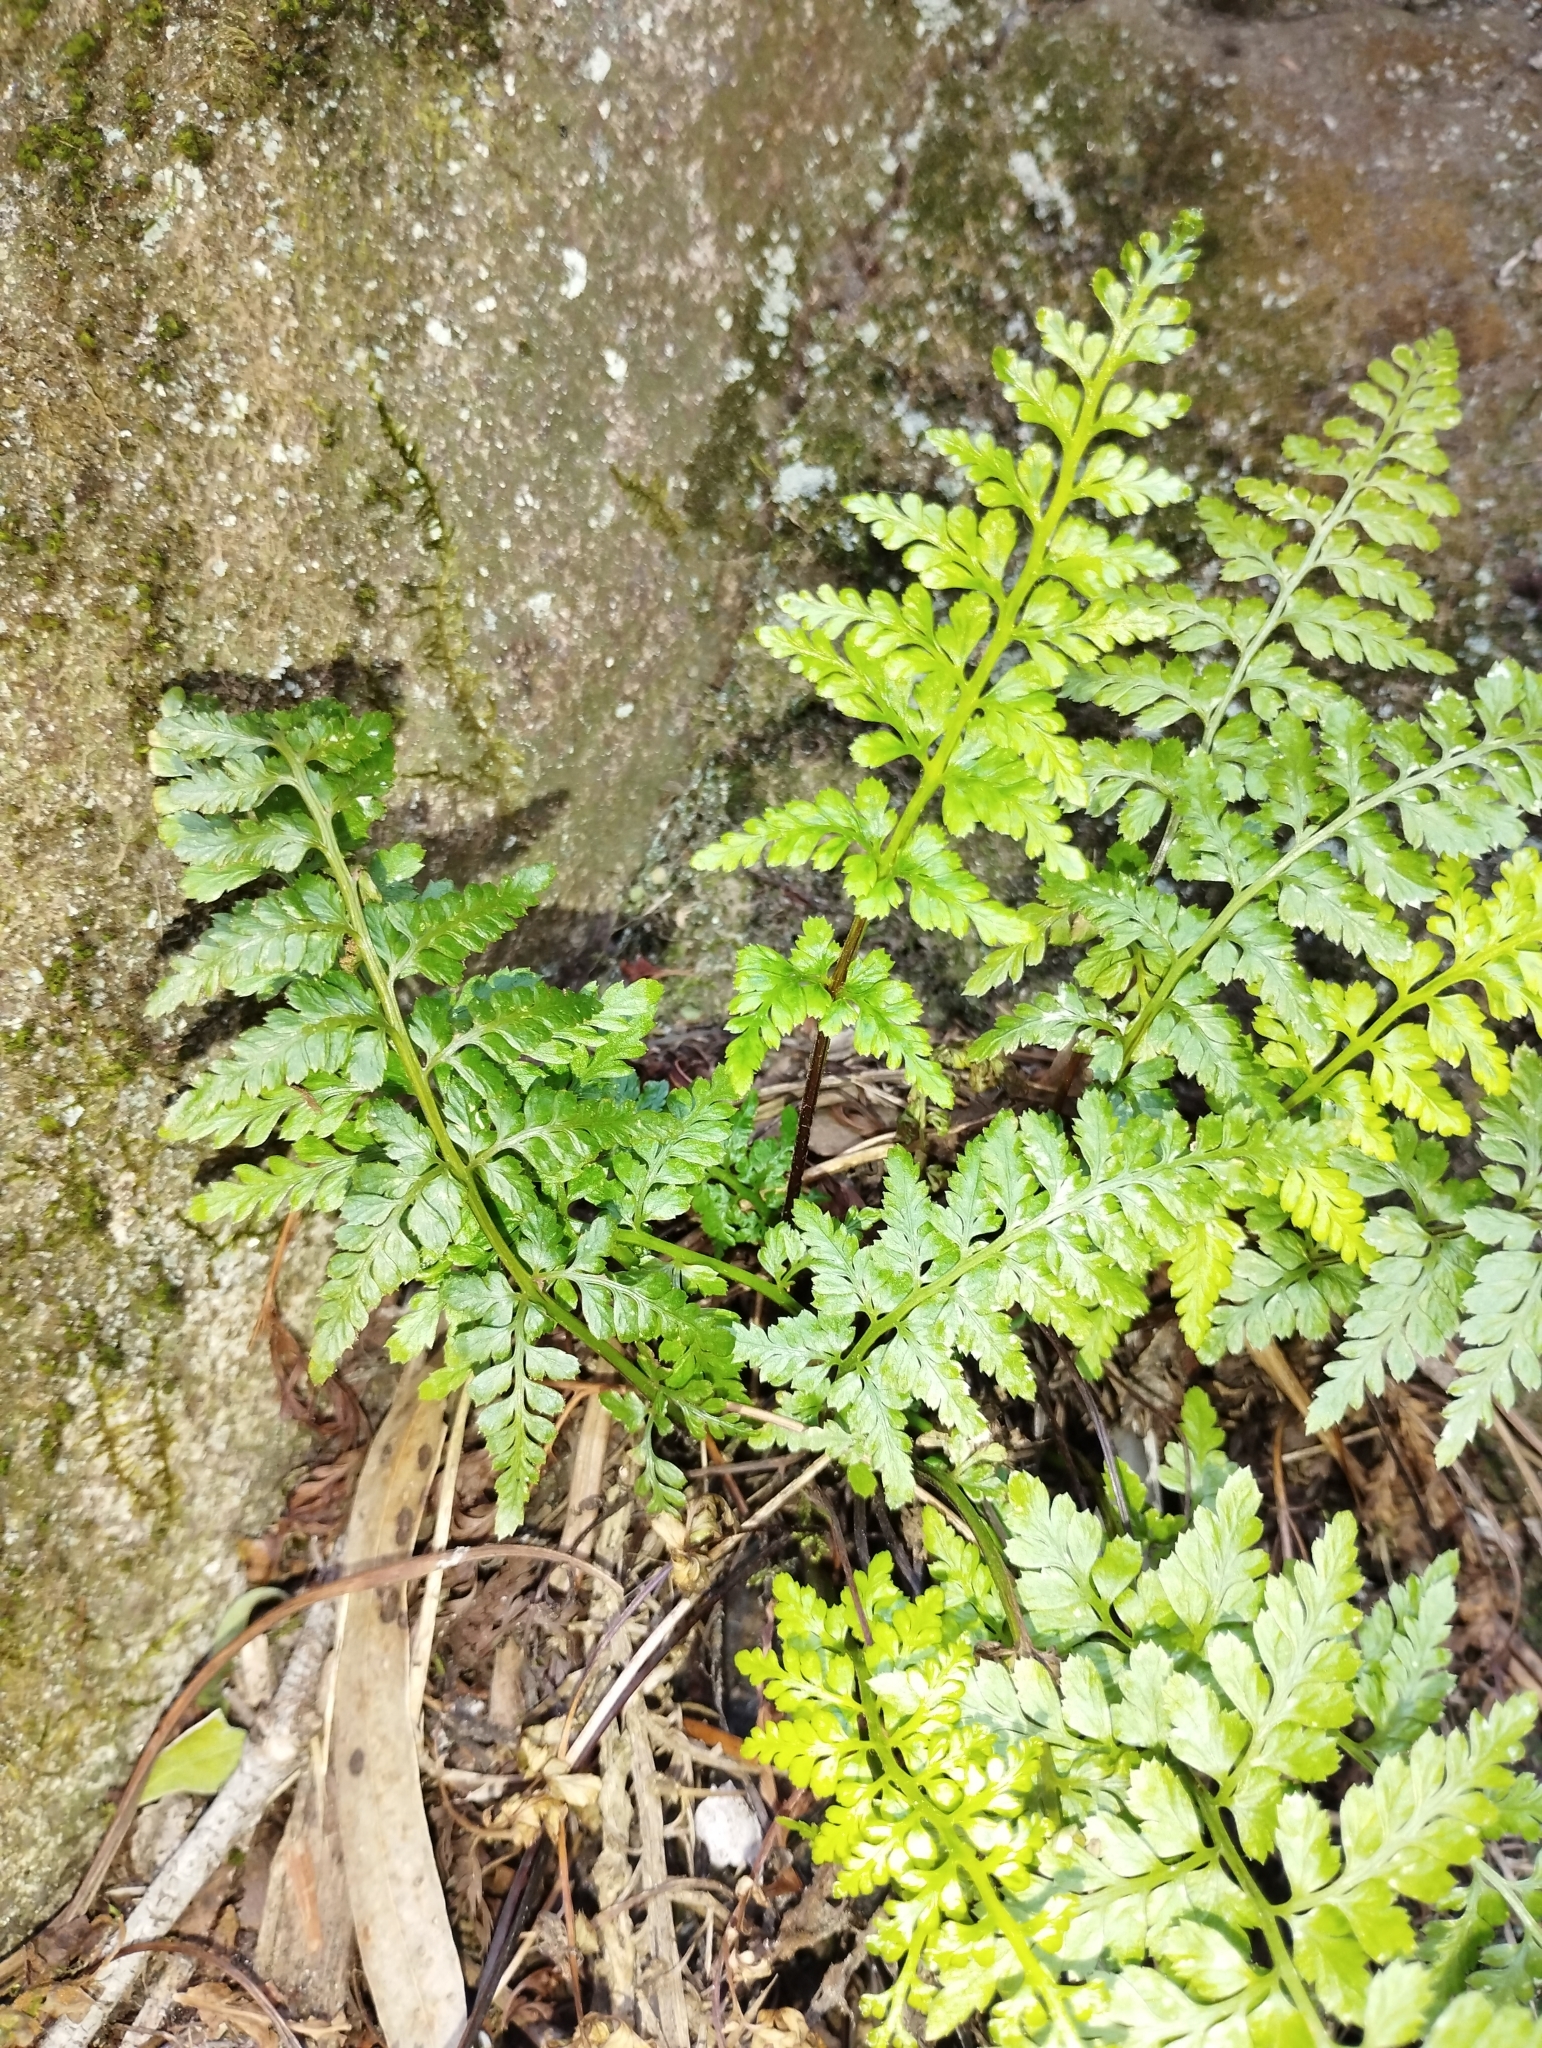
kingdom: Plantae
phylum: Tracheophyta
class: Polypodiopsida
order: Polypodiales
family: Aspleniaceae
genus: Asplenium
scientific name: Asplenium obovatum
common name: Lanceolate spleenwort
